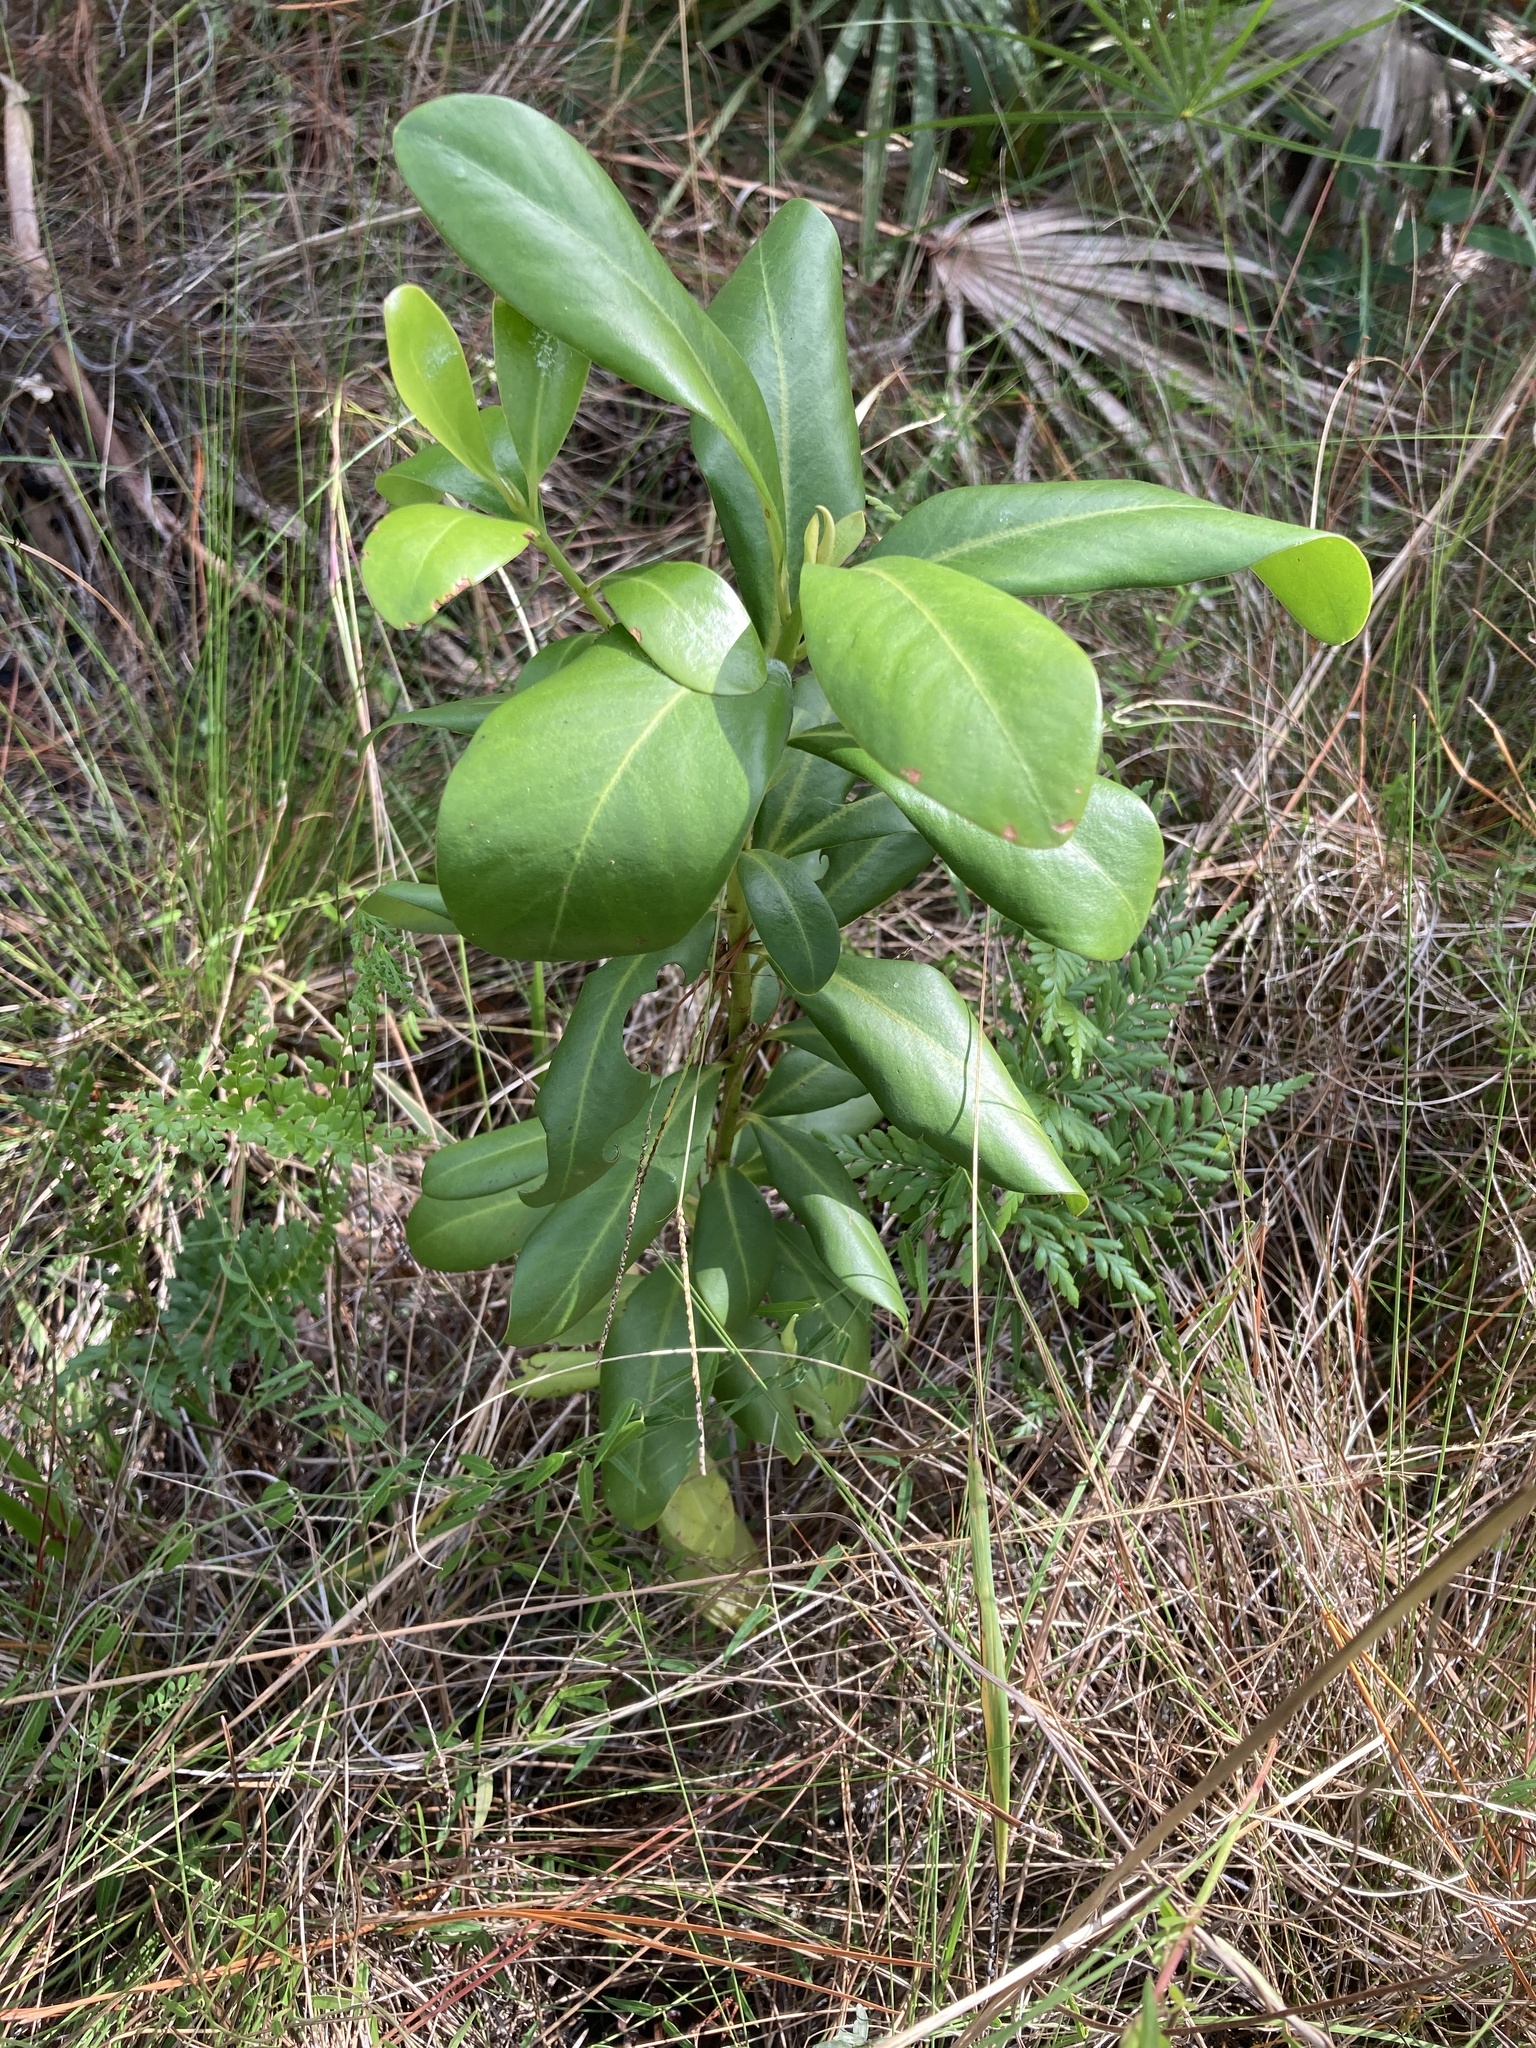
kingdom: Plantae
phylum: Tracheophyta
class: Magnoliopsida
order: Ericales
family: Primulaceae
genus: Myrsine
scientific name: Myrsine floridana
